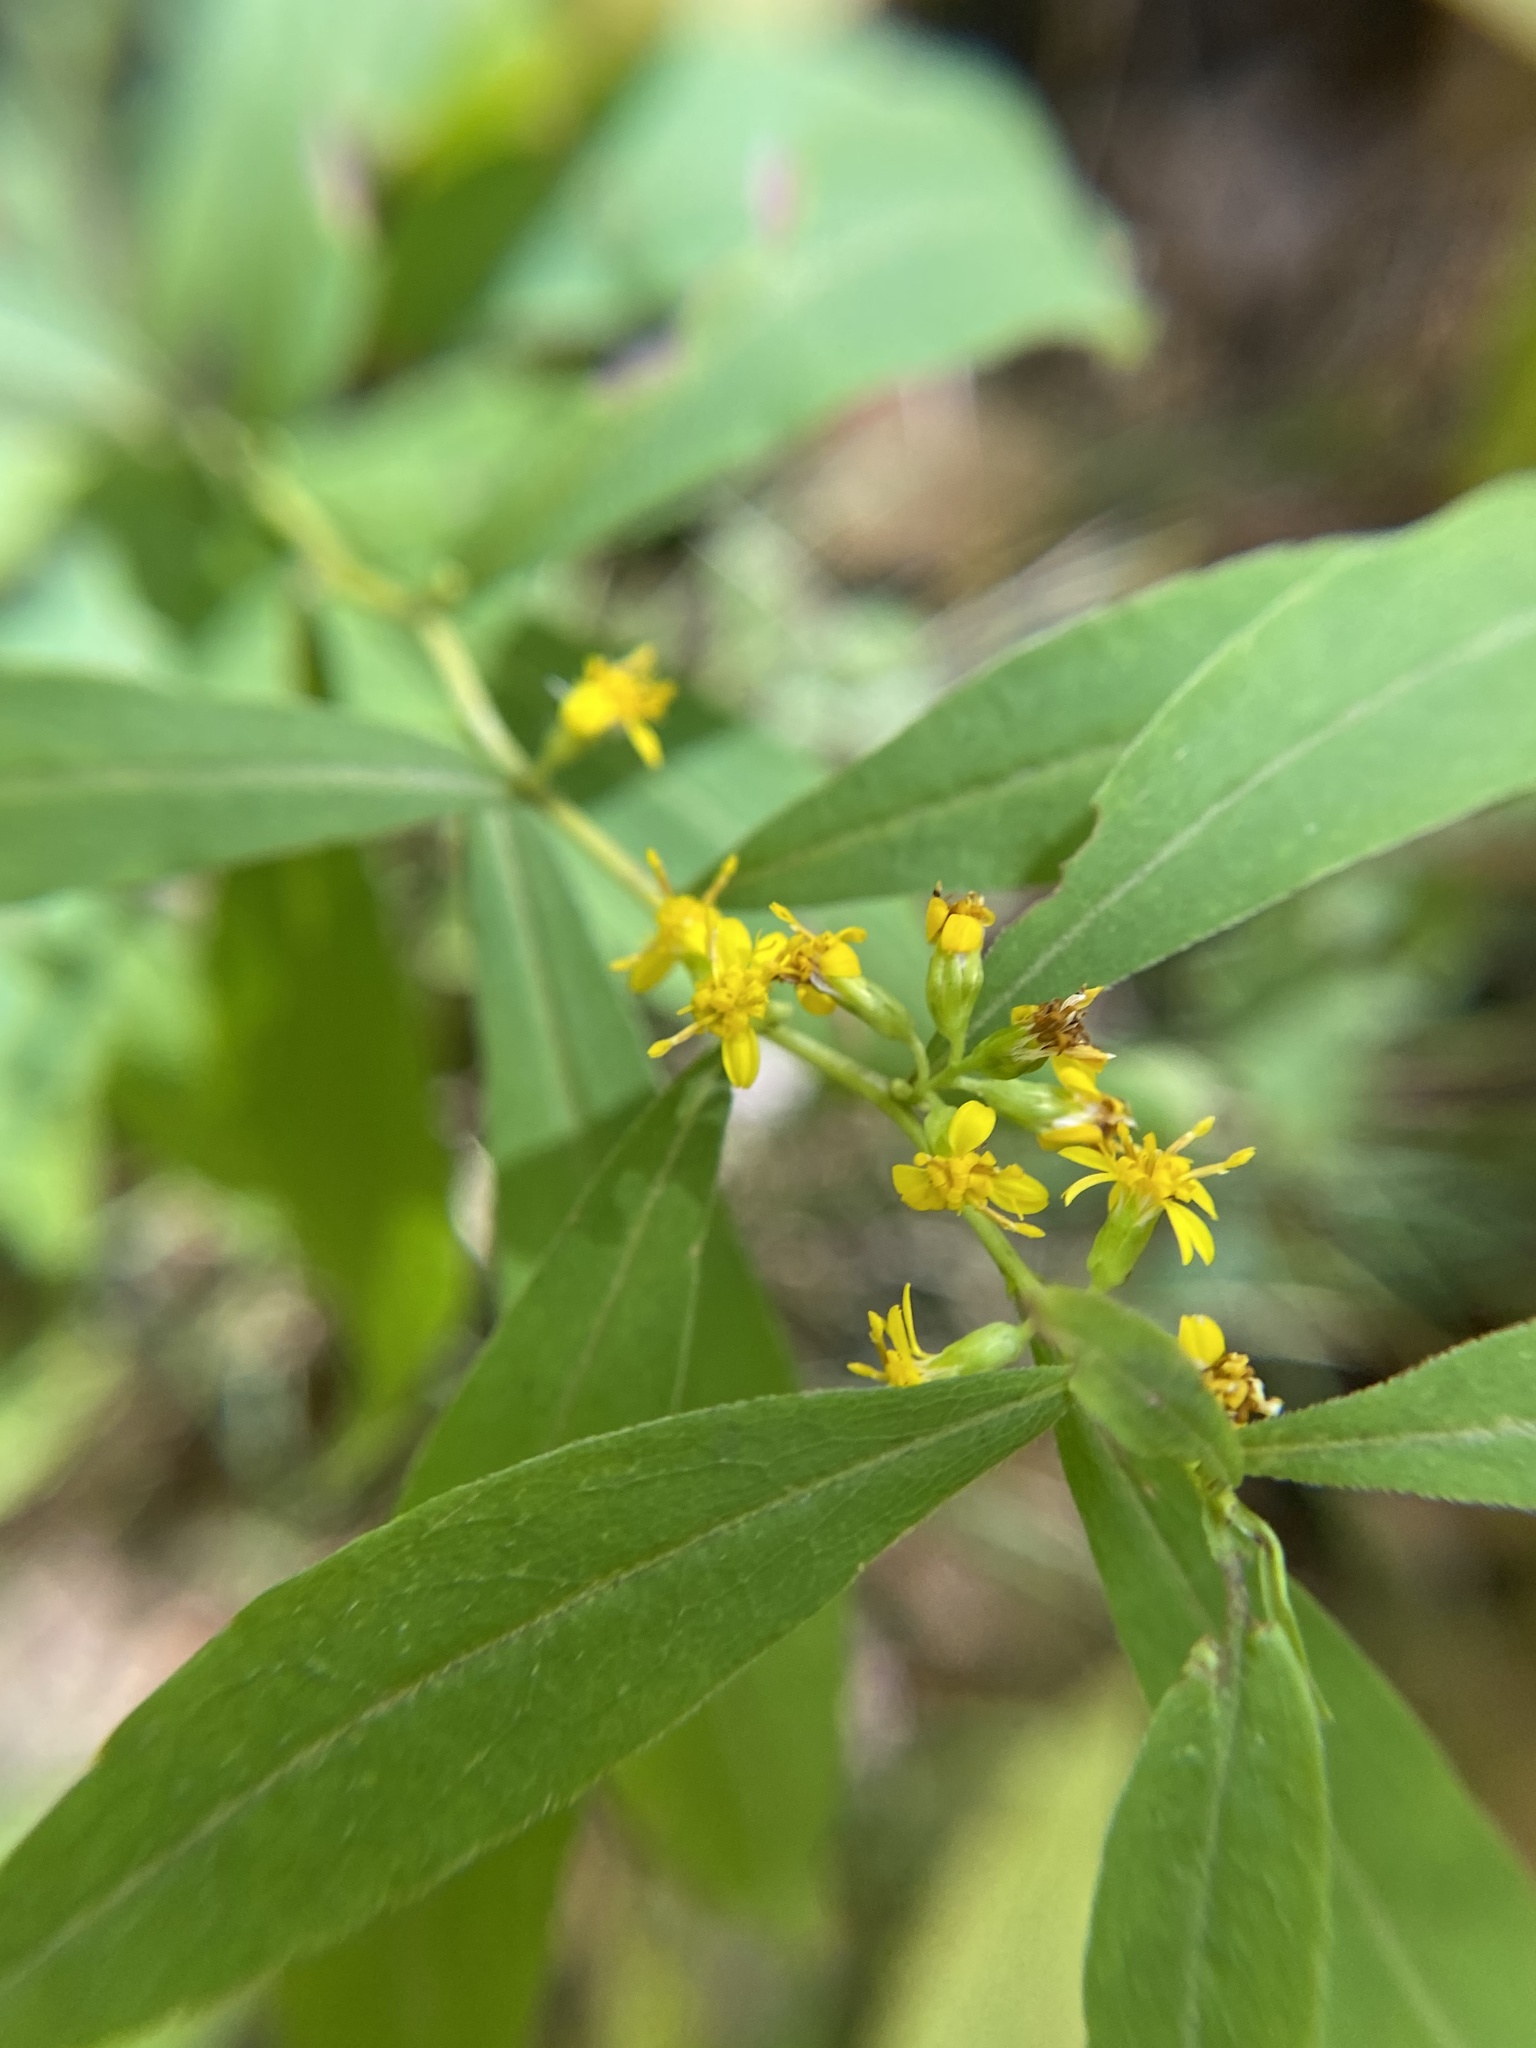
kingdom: Plantae
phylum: Tracheophyta
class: Magnoliopsida
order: Asterales
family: Asteraceae
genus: Solidago
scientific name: Solidago caesia
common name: Woodland goldenrod
